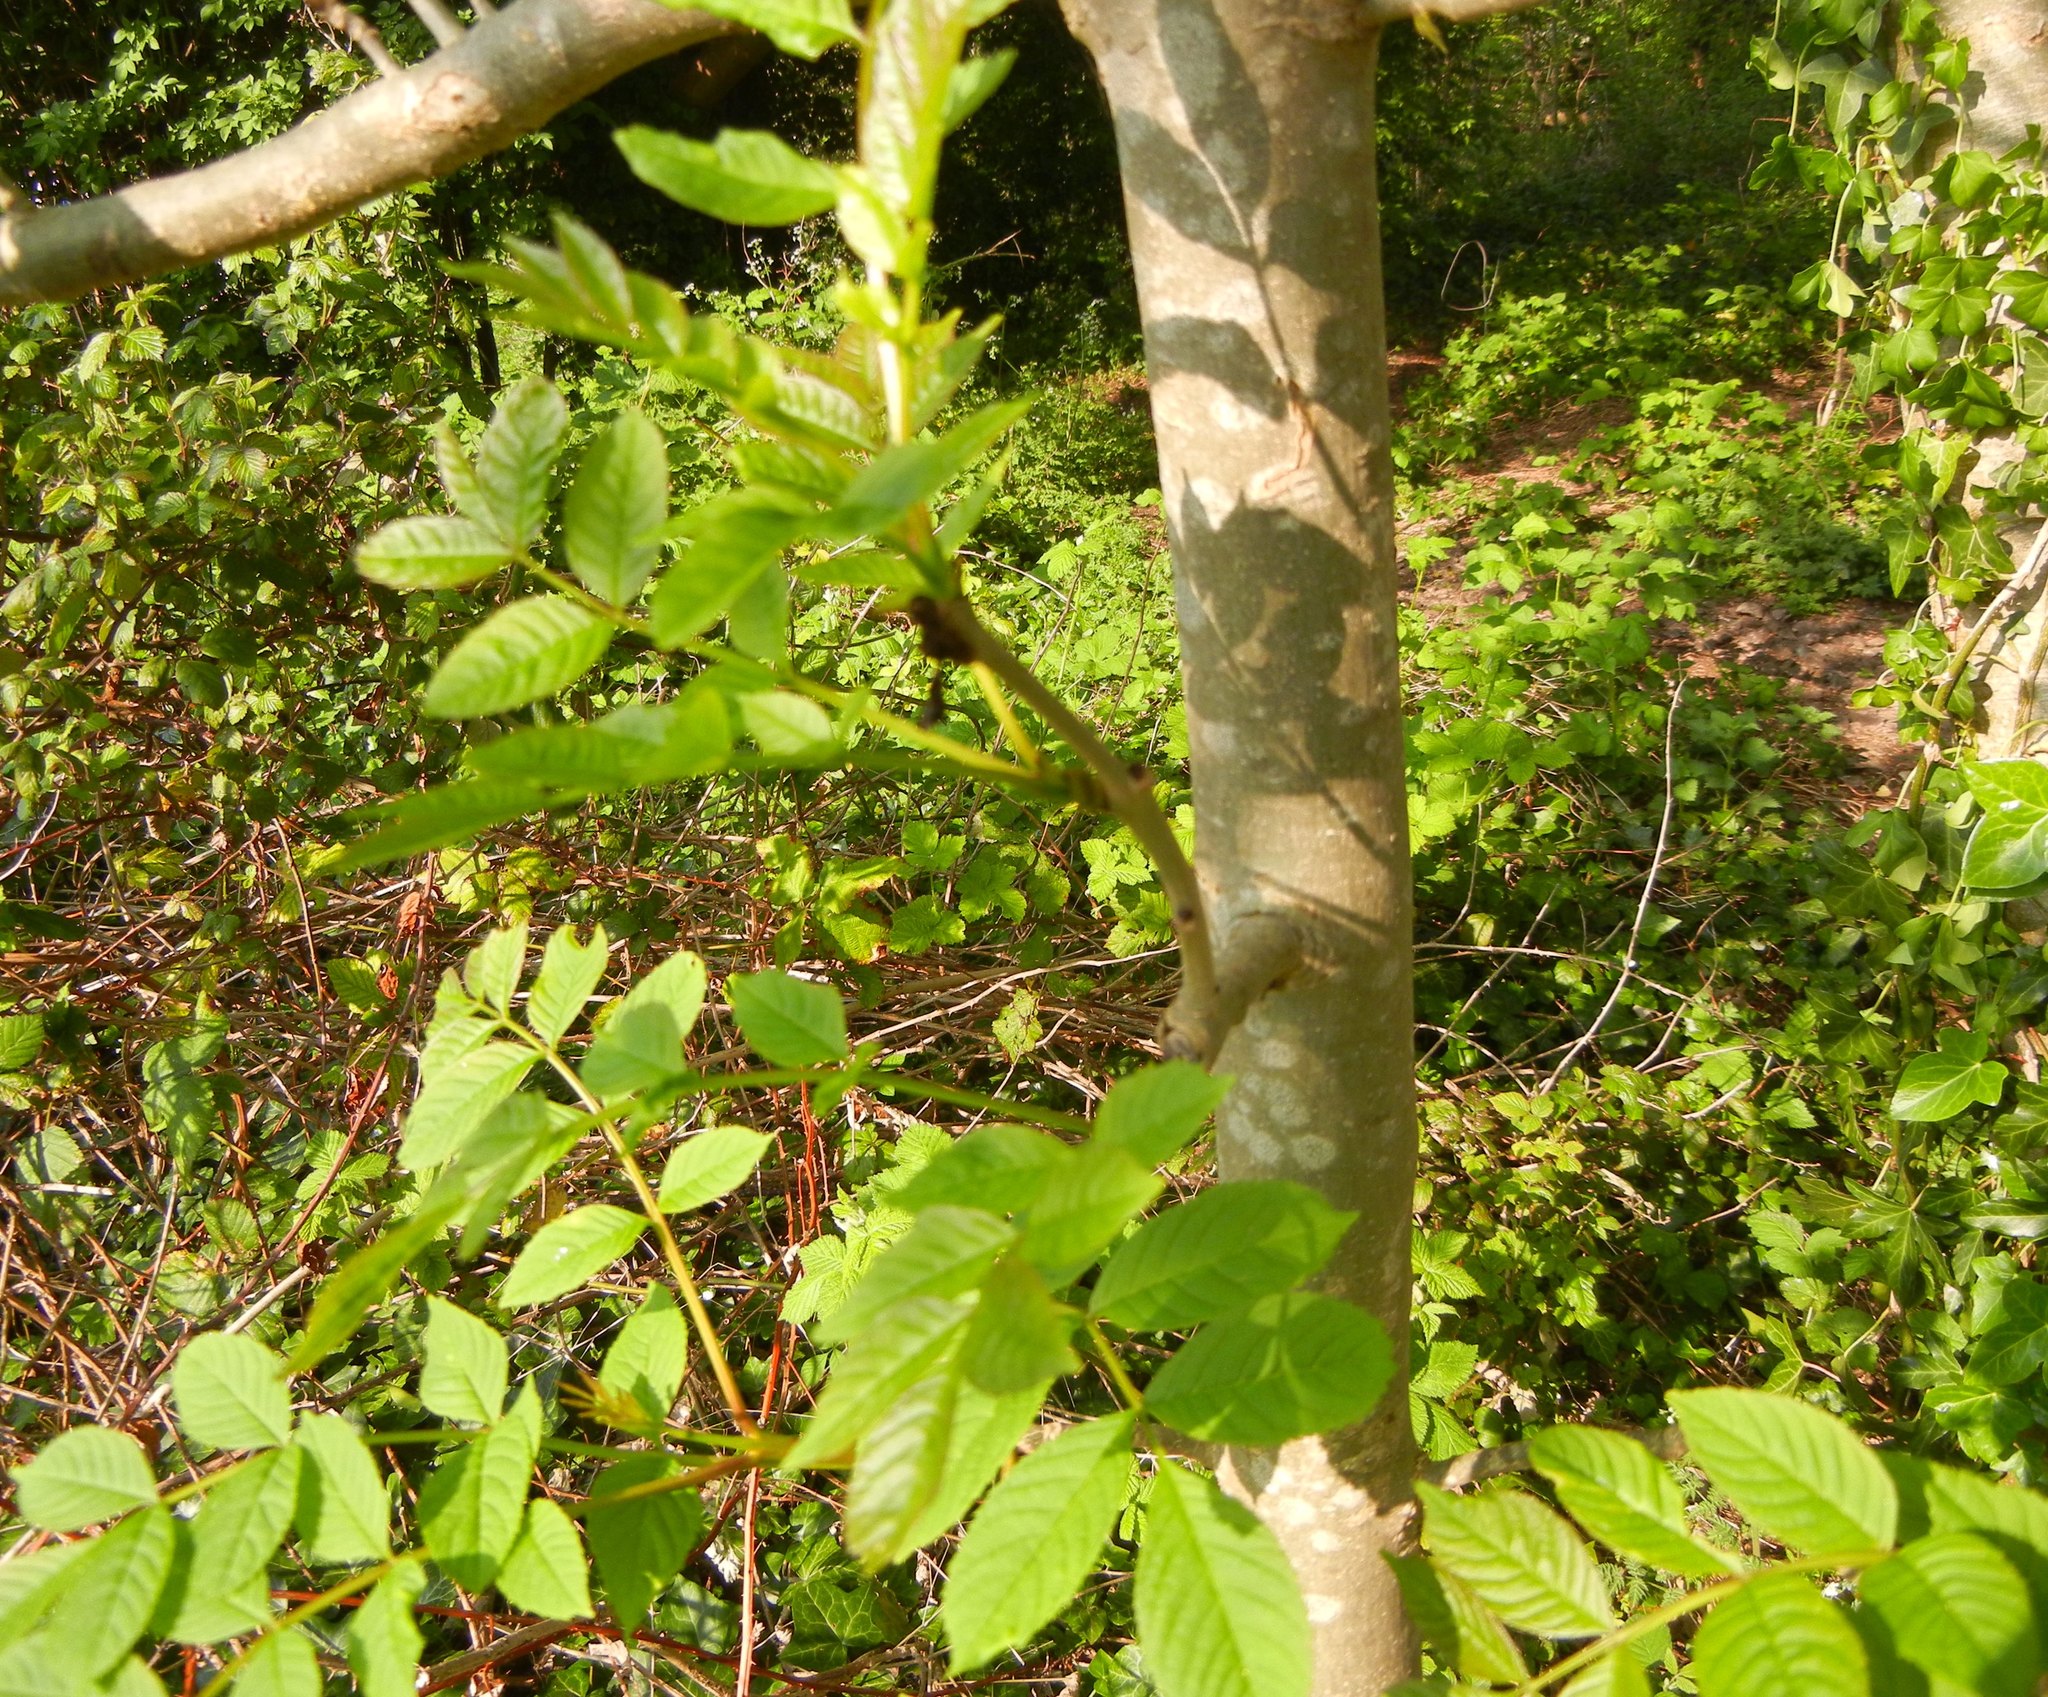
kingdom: Plantae
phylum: Tracheophyta
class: Magnoliopsida
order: Lamiales
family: Oleaceae
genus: Fraxinus
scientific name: Fraxinus excelsior
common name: European ash
